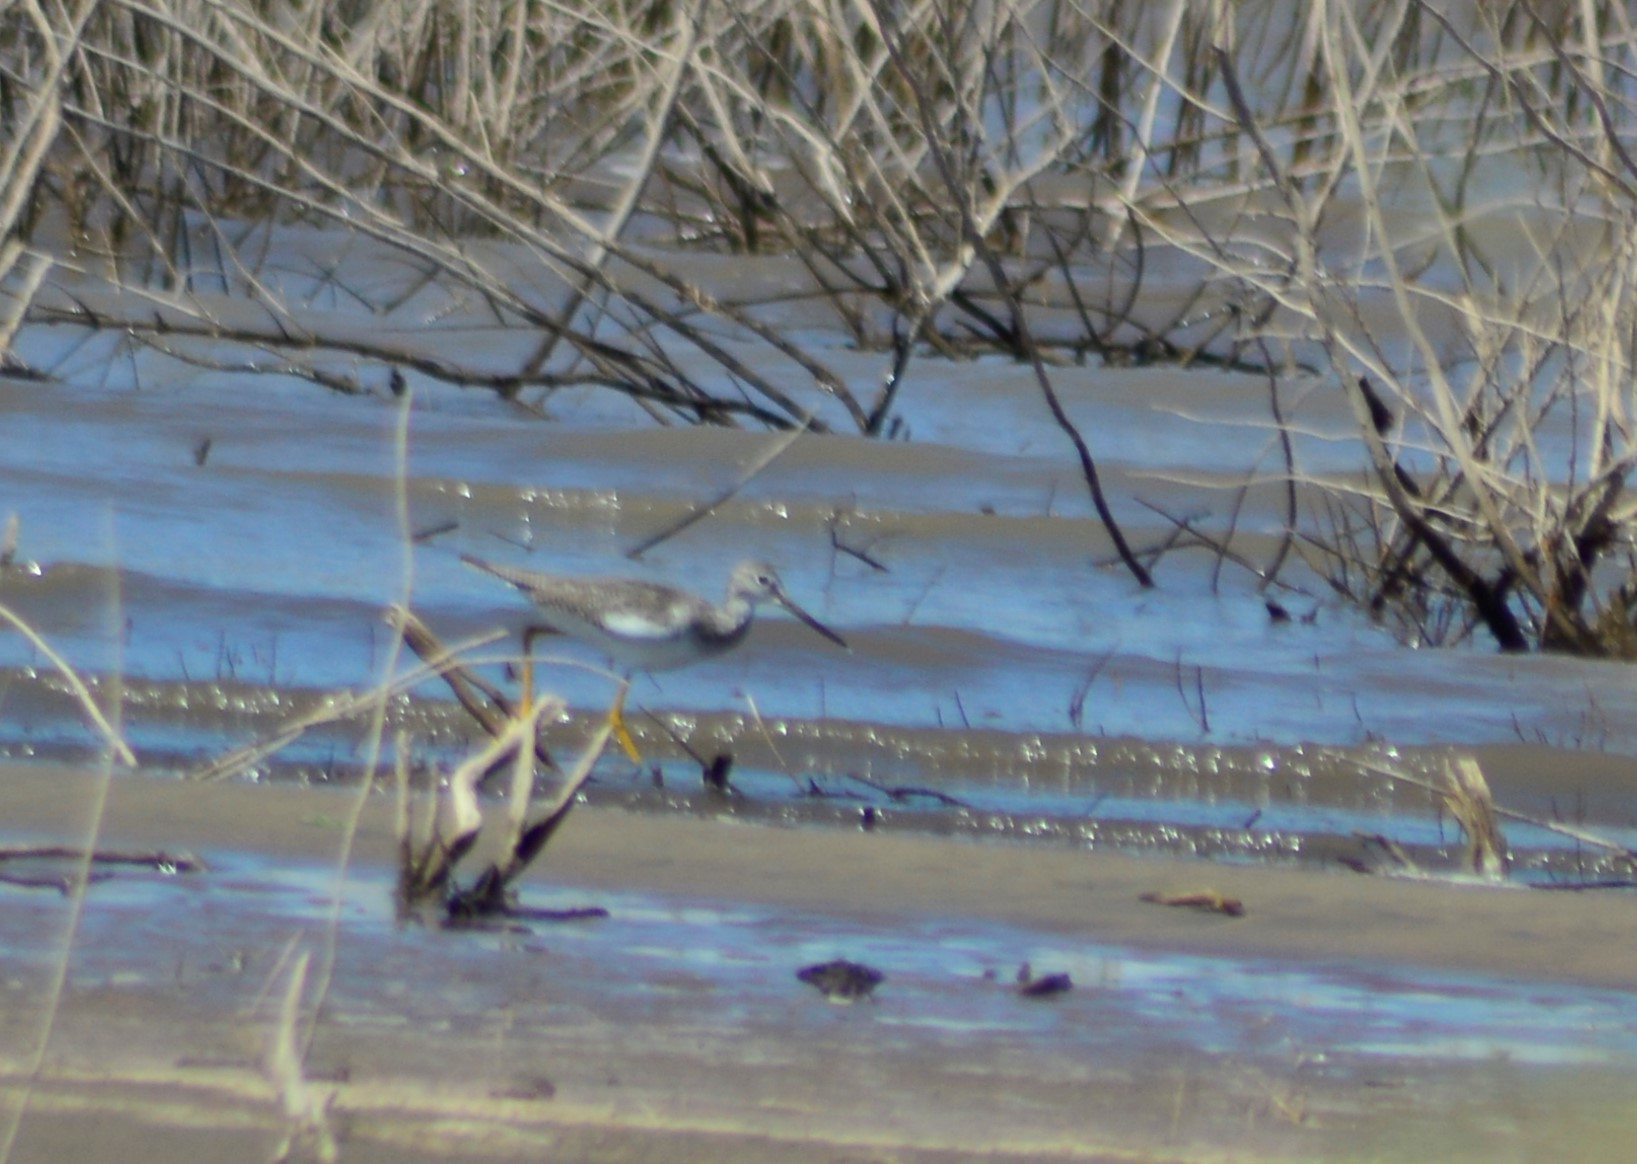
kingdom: Animalia
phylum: Chordata
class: Aves
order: Charadriiformes
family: Scolopacidae
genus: Tringa
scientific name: Tringa melanoleuca
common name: Greater yellowlegs
